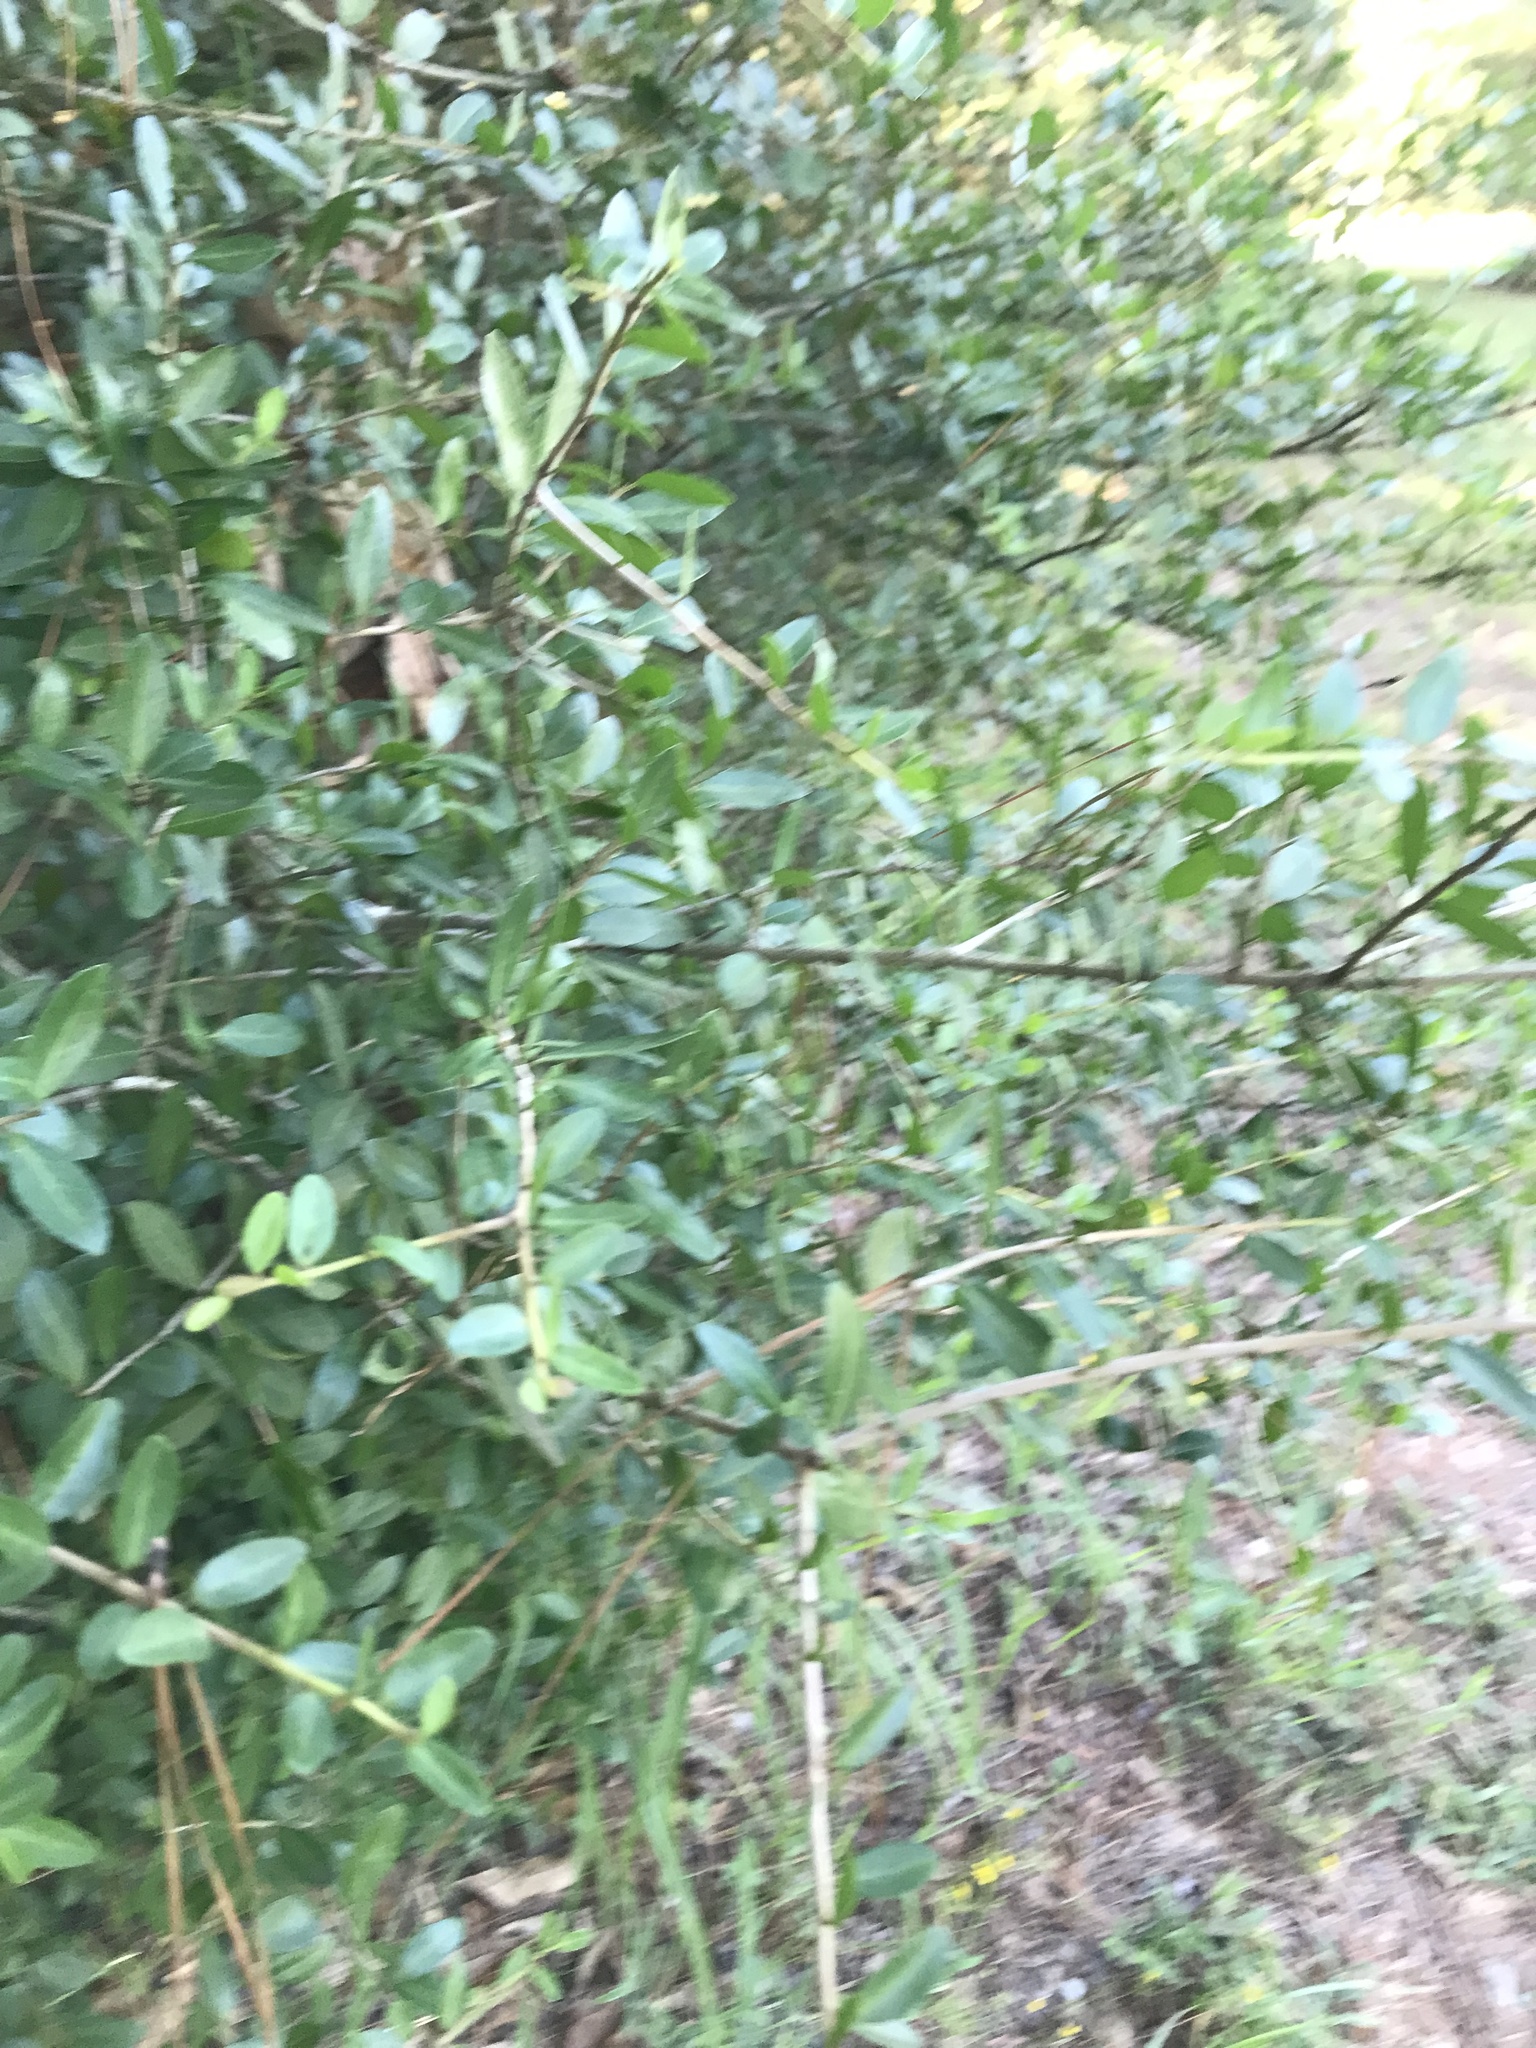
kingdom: Plantae
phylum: Tracheophyta
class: Magnoliopsida
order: Aquifoliales
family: Aquifoliaceae
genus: Ilex
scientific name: Ilex vomitoria
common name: Yaupon holly
